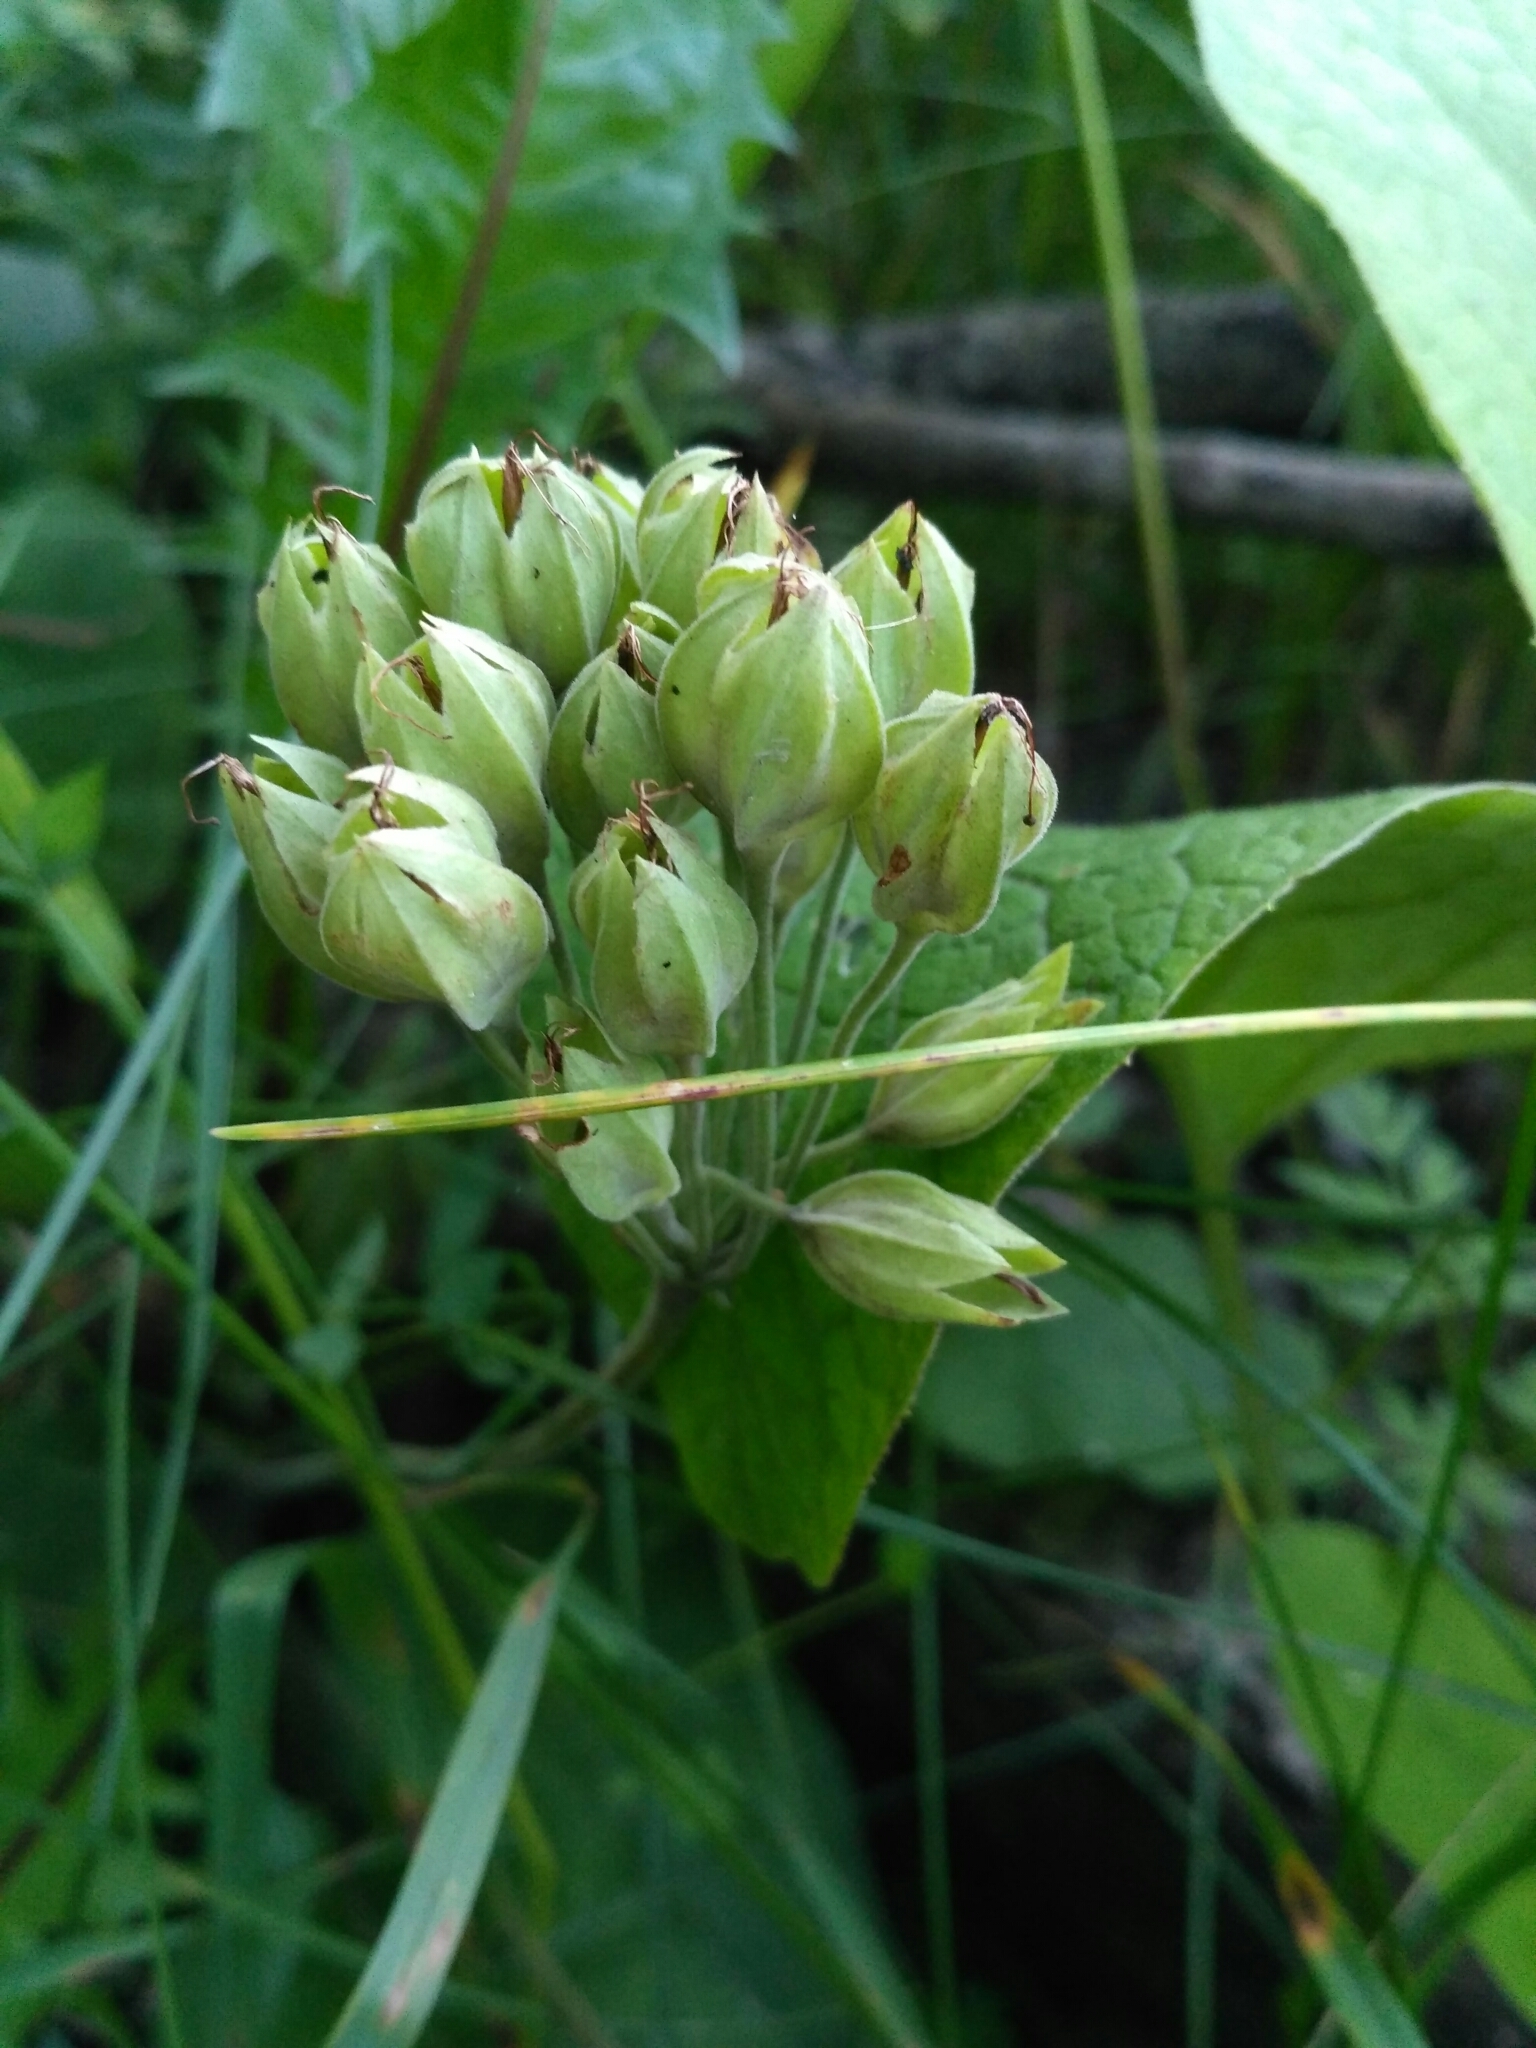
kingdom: Plantae
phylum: Tracheophyta
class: Magnoliopsida
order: Ericales
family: Primulaceae
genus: Primula
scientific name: Primula veris
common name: Cowslip
